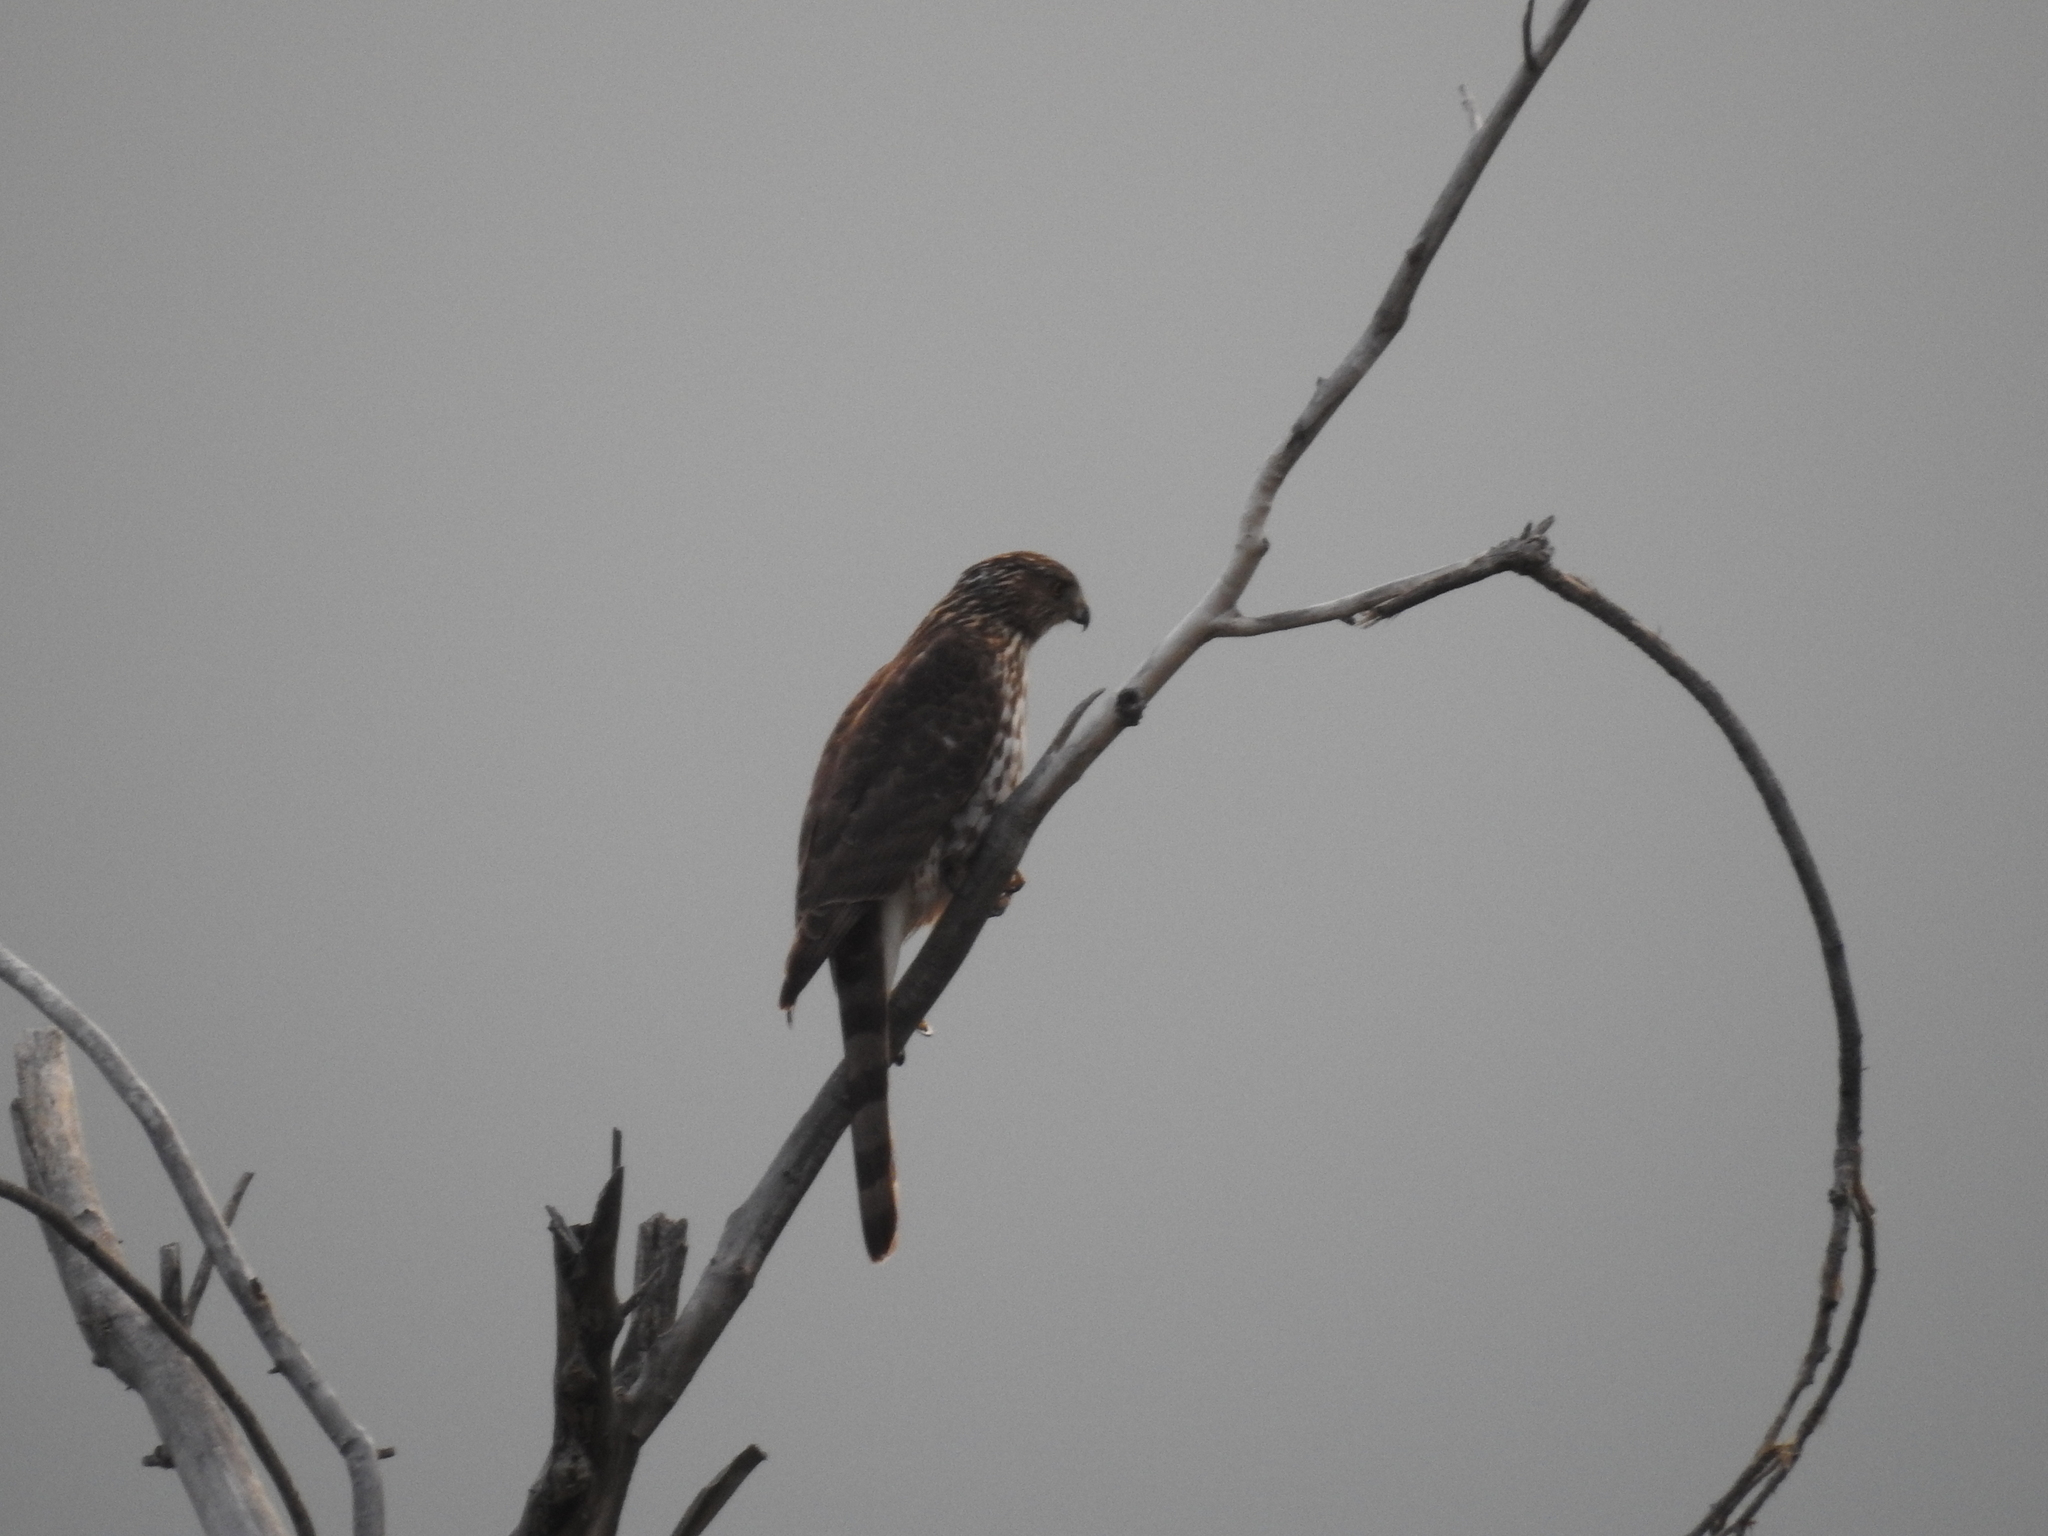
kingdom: Animalia
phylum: Chordata
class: Aves
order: Accipitriformes
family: Accipitridae
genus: Accipiter
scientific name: Accipiter cooperii
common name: Cooper's hawk
